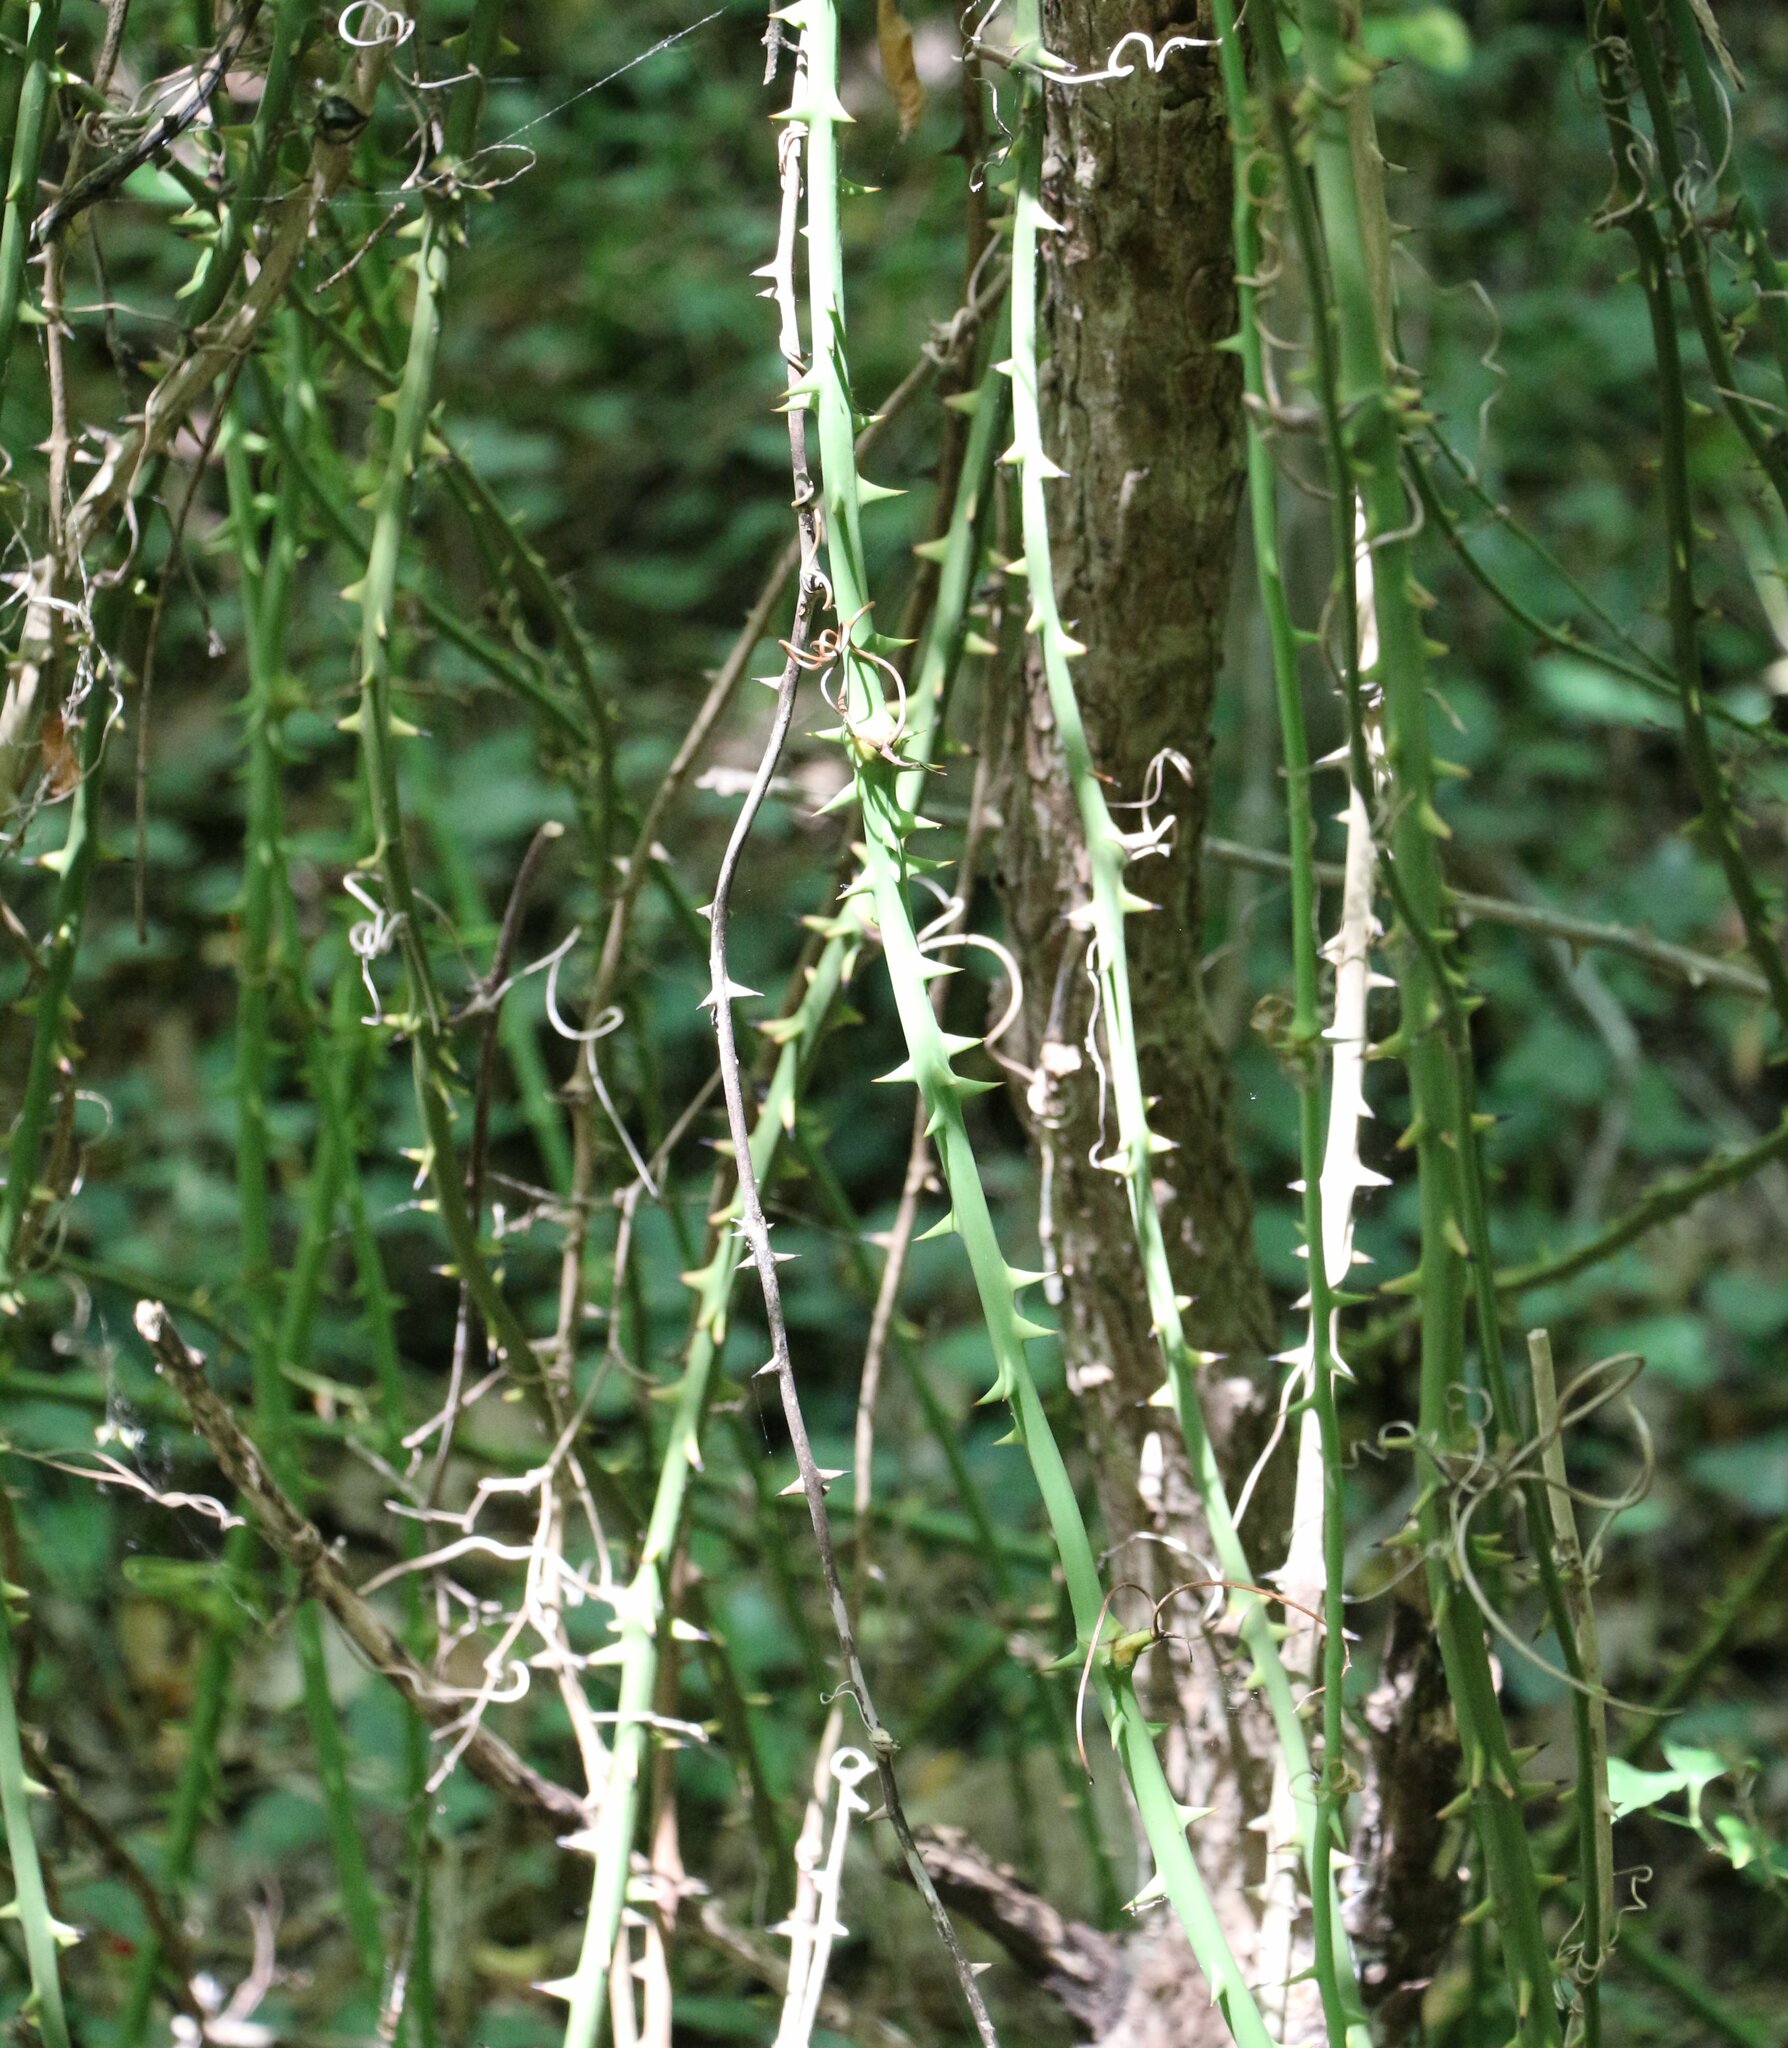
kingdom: Plantae
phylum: Tracheophyta
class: Liliopsida
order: Liliales
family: Smilacaceae
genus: Smilax
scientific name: Smilax excelsa
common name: Larger smilax
